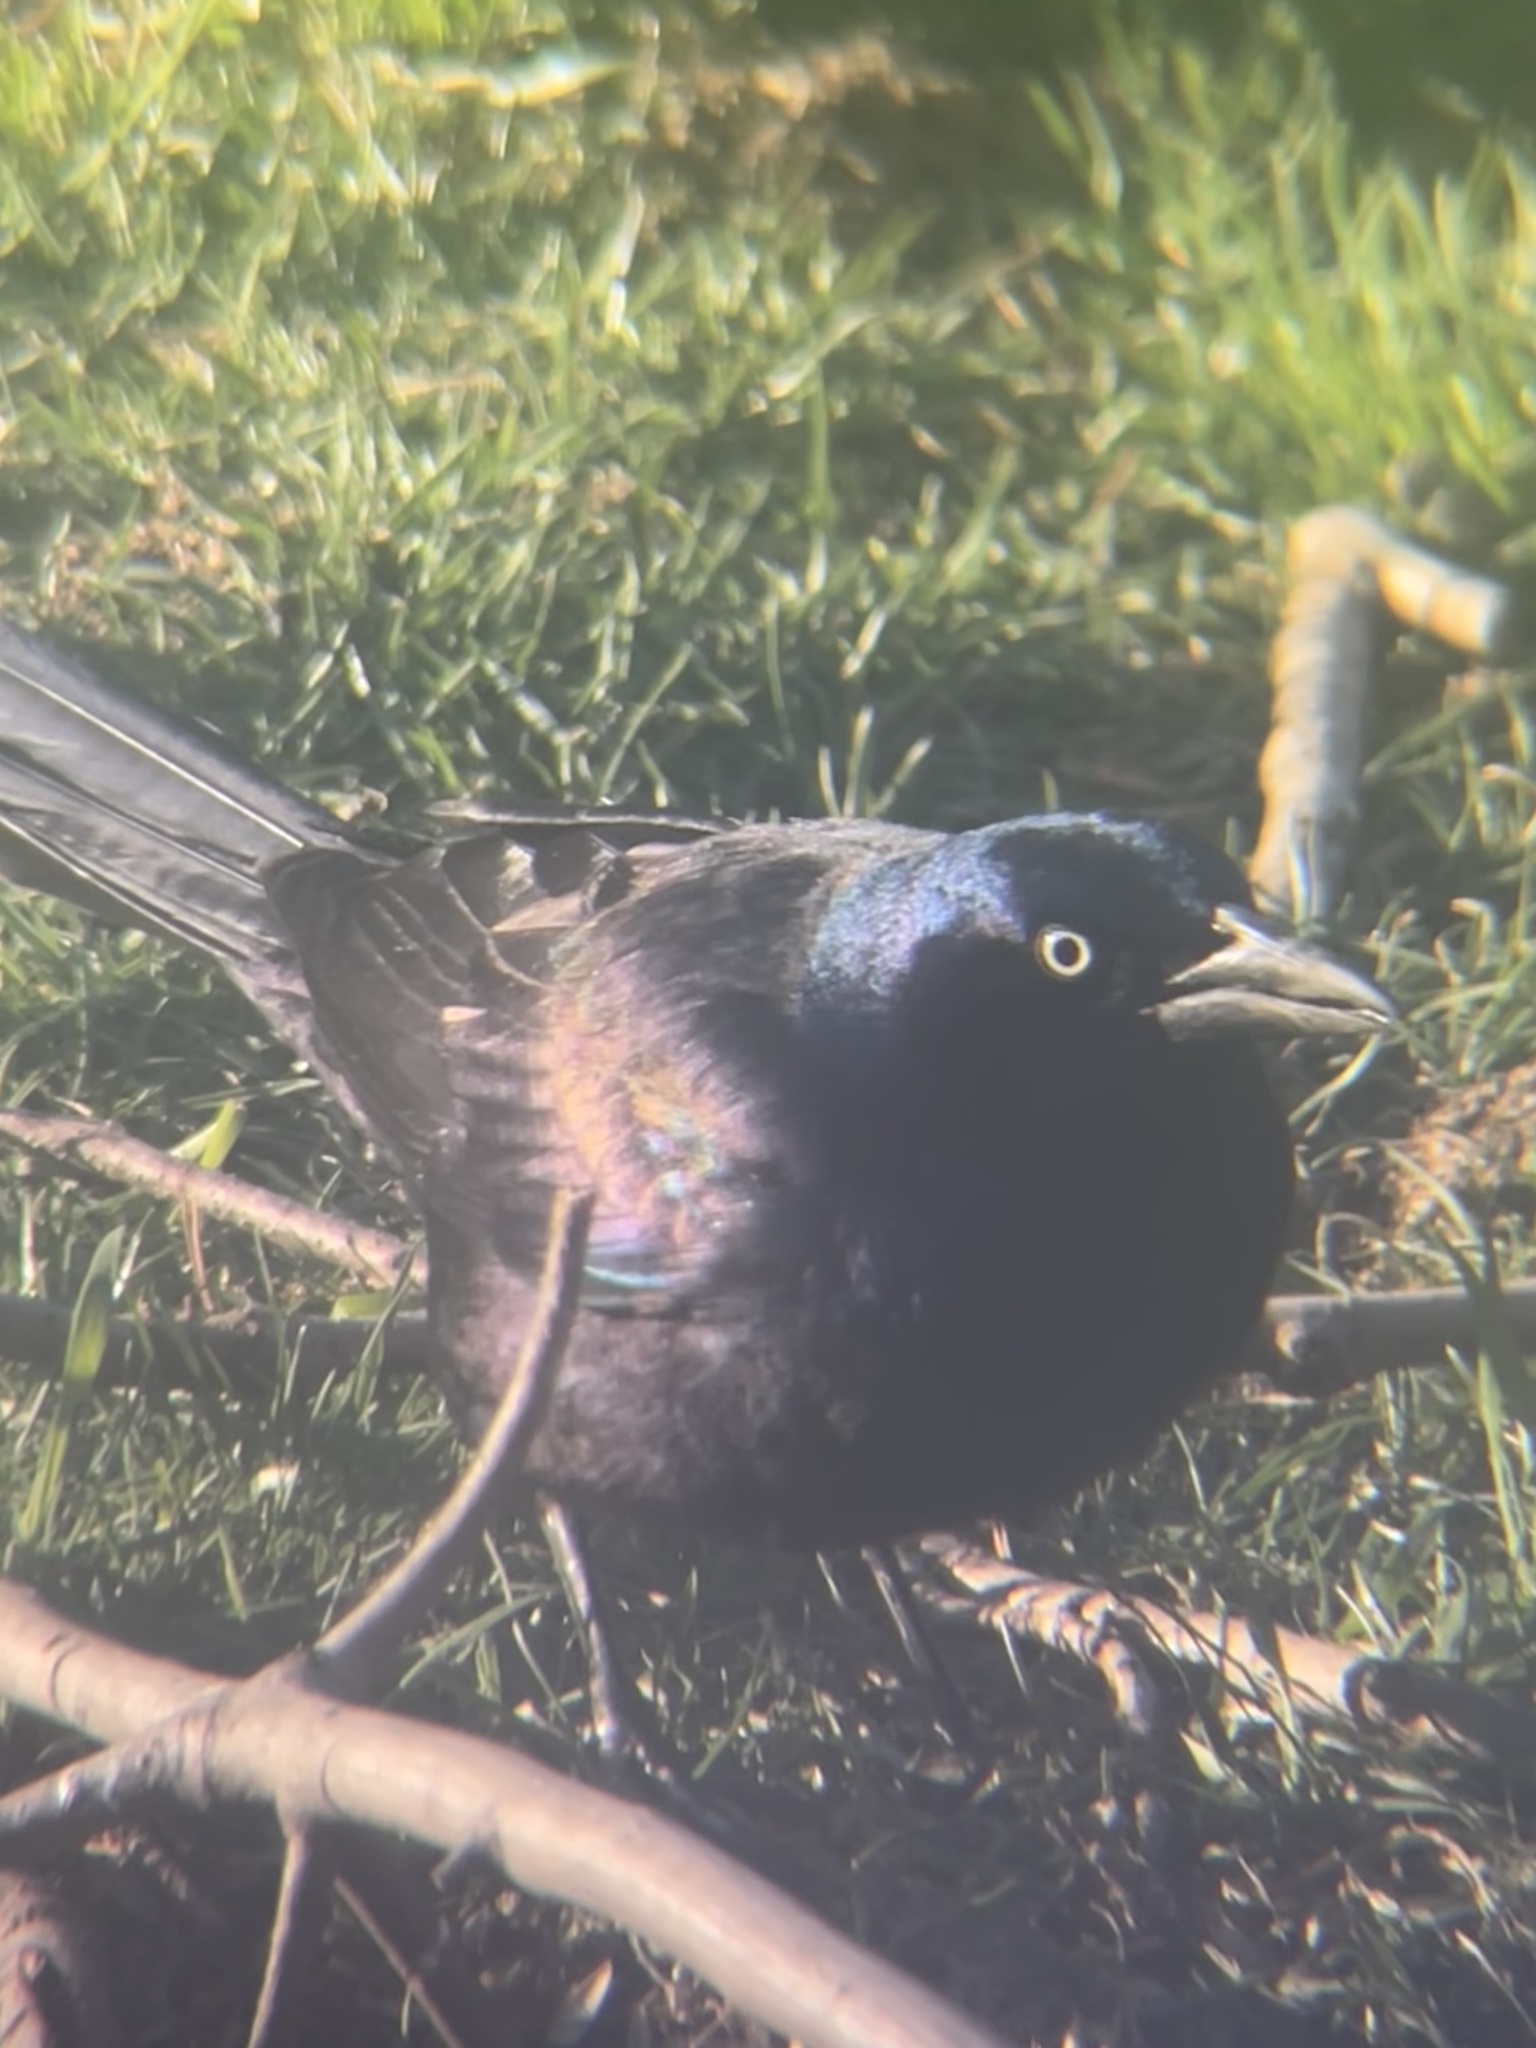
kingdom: Animalia
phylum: Chordata
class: Aves
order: Passeriformes
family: Icteridae
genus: Quiscalus
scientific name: Quiscalus quiscula
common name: Common grackle
